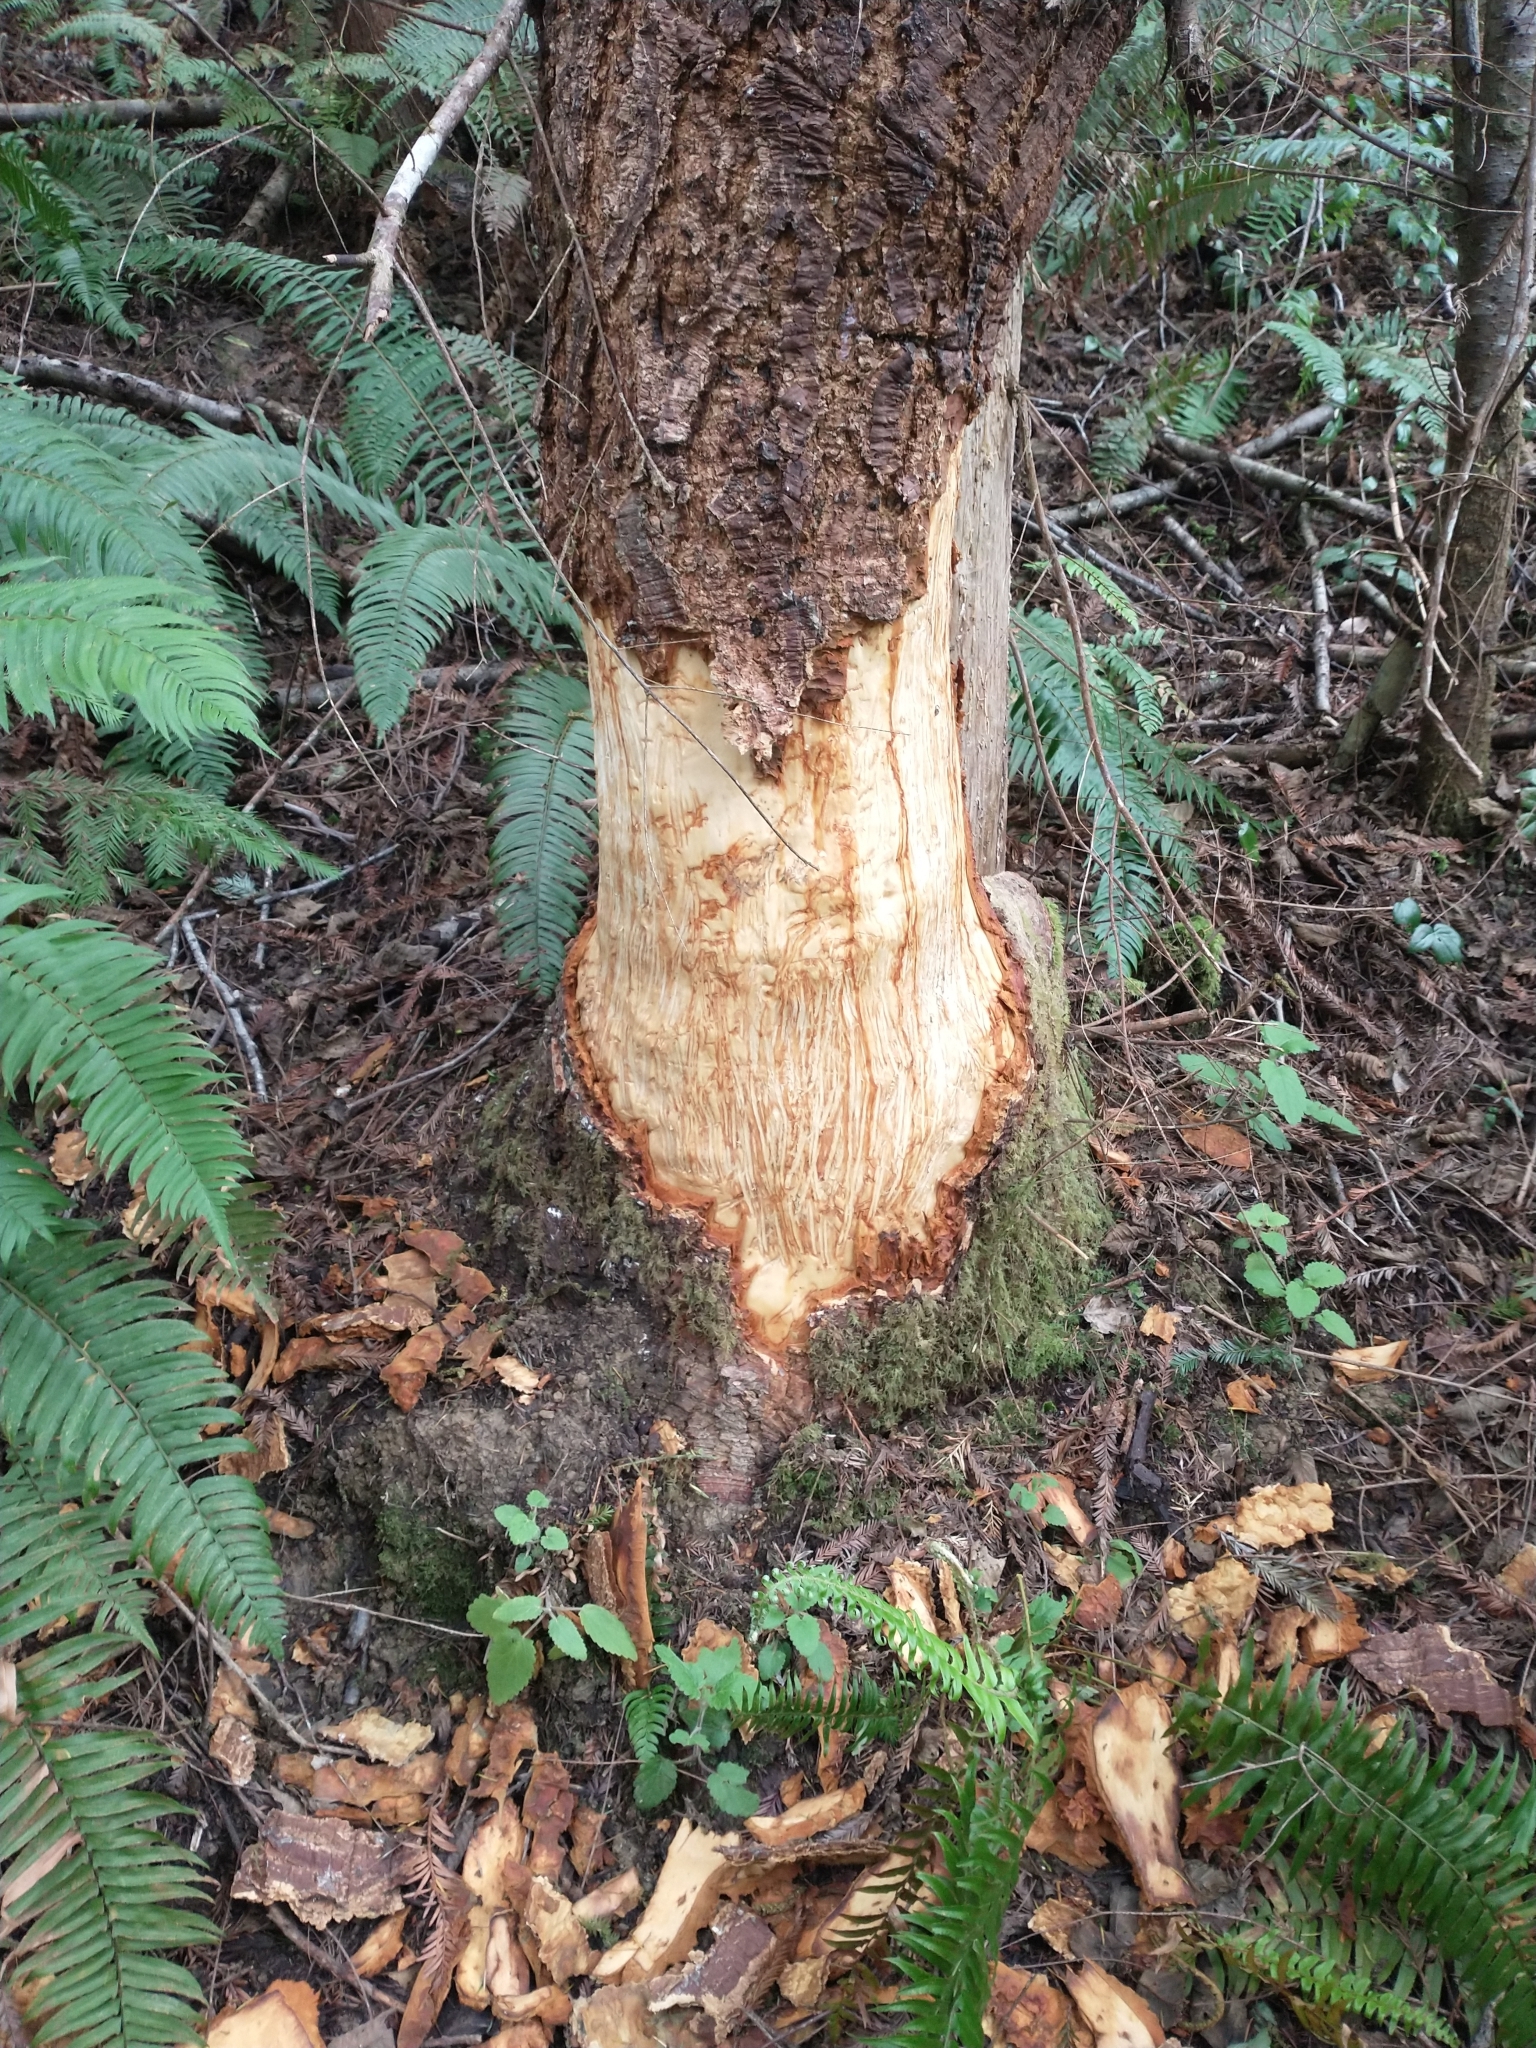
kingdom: Animalia
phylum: Chordata
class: Mammalia
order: Carnivora
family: Ursidae
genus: Ursus
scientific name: Ursus americanus
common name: American black bear
